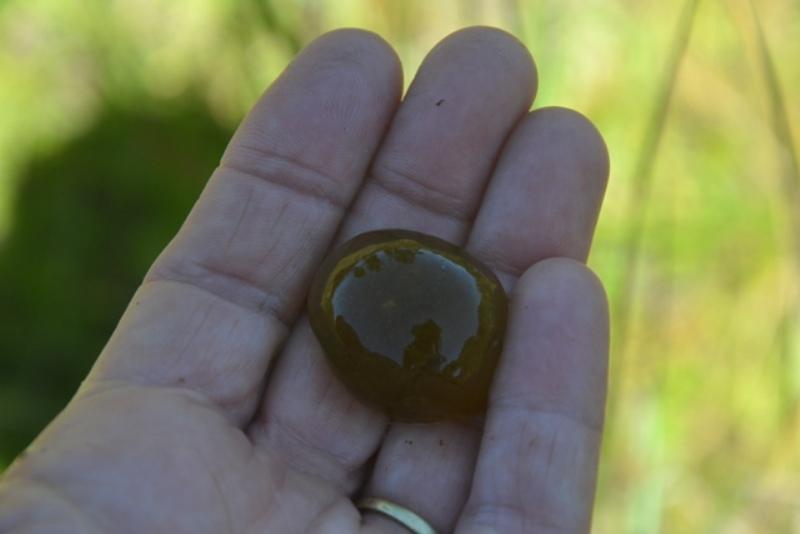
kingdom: Chromista
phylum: Ciliophora
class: Oligohymenophorea
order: Peritrichida
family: Ophrydiidae
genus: Ophrydium
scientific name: Ophrydium
